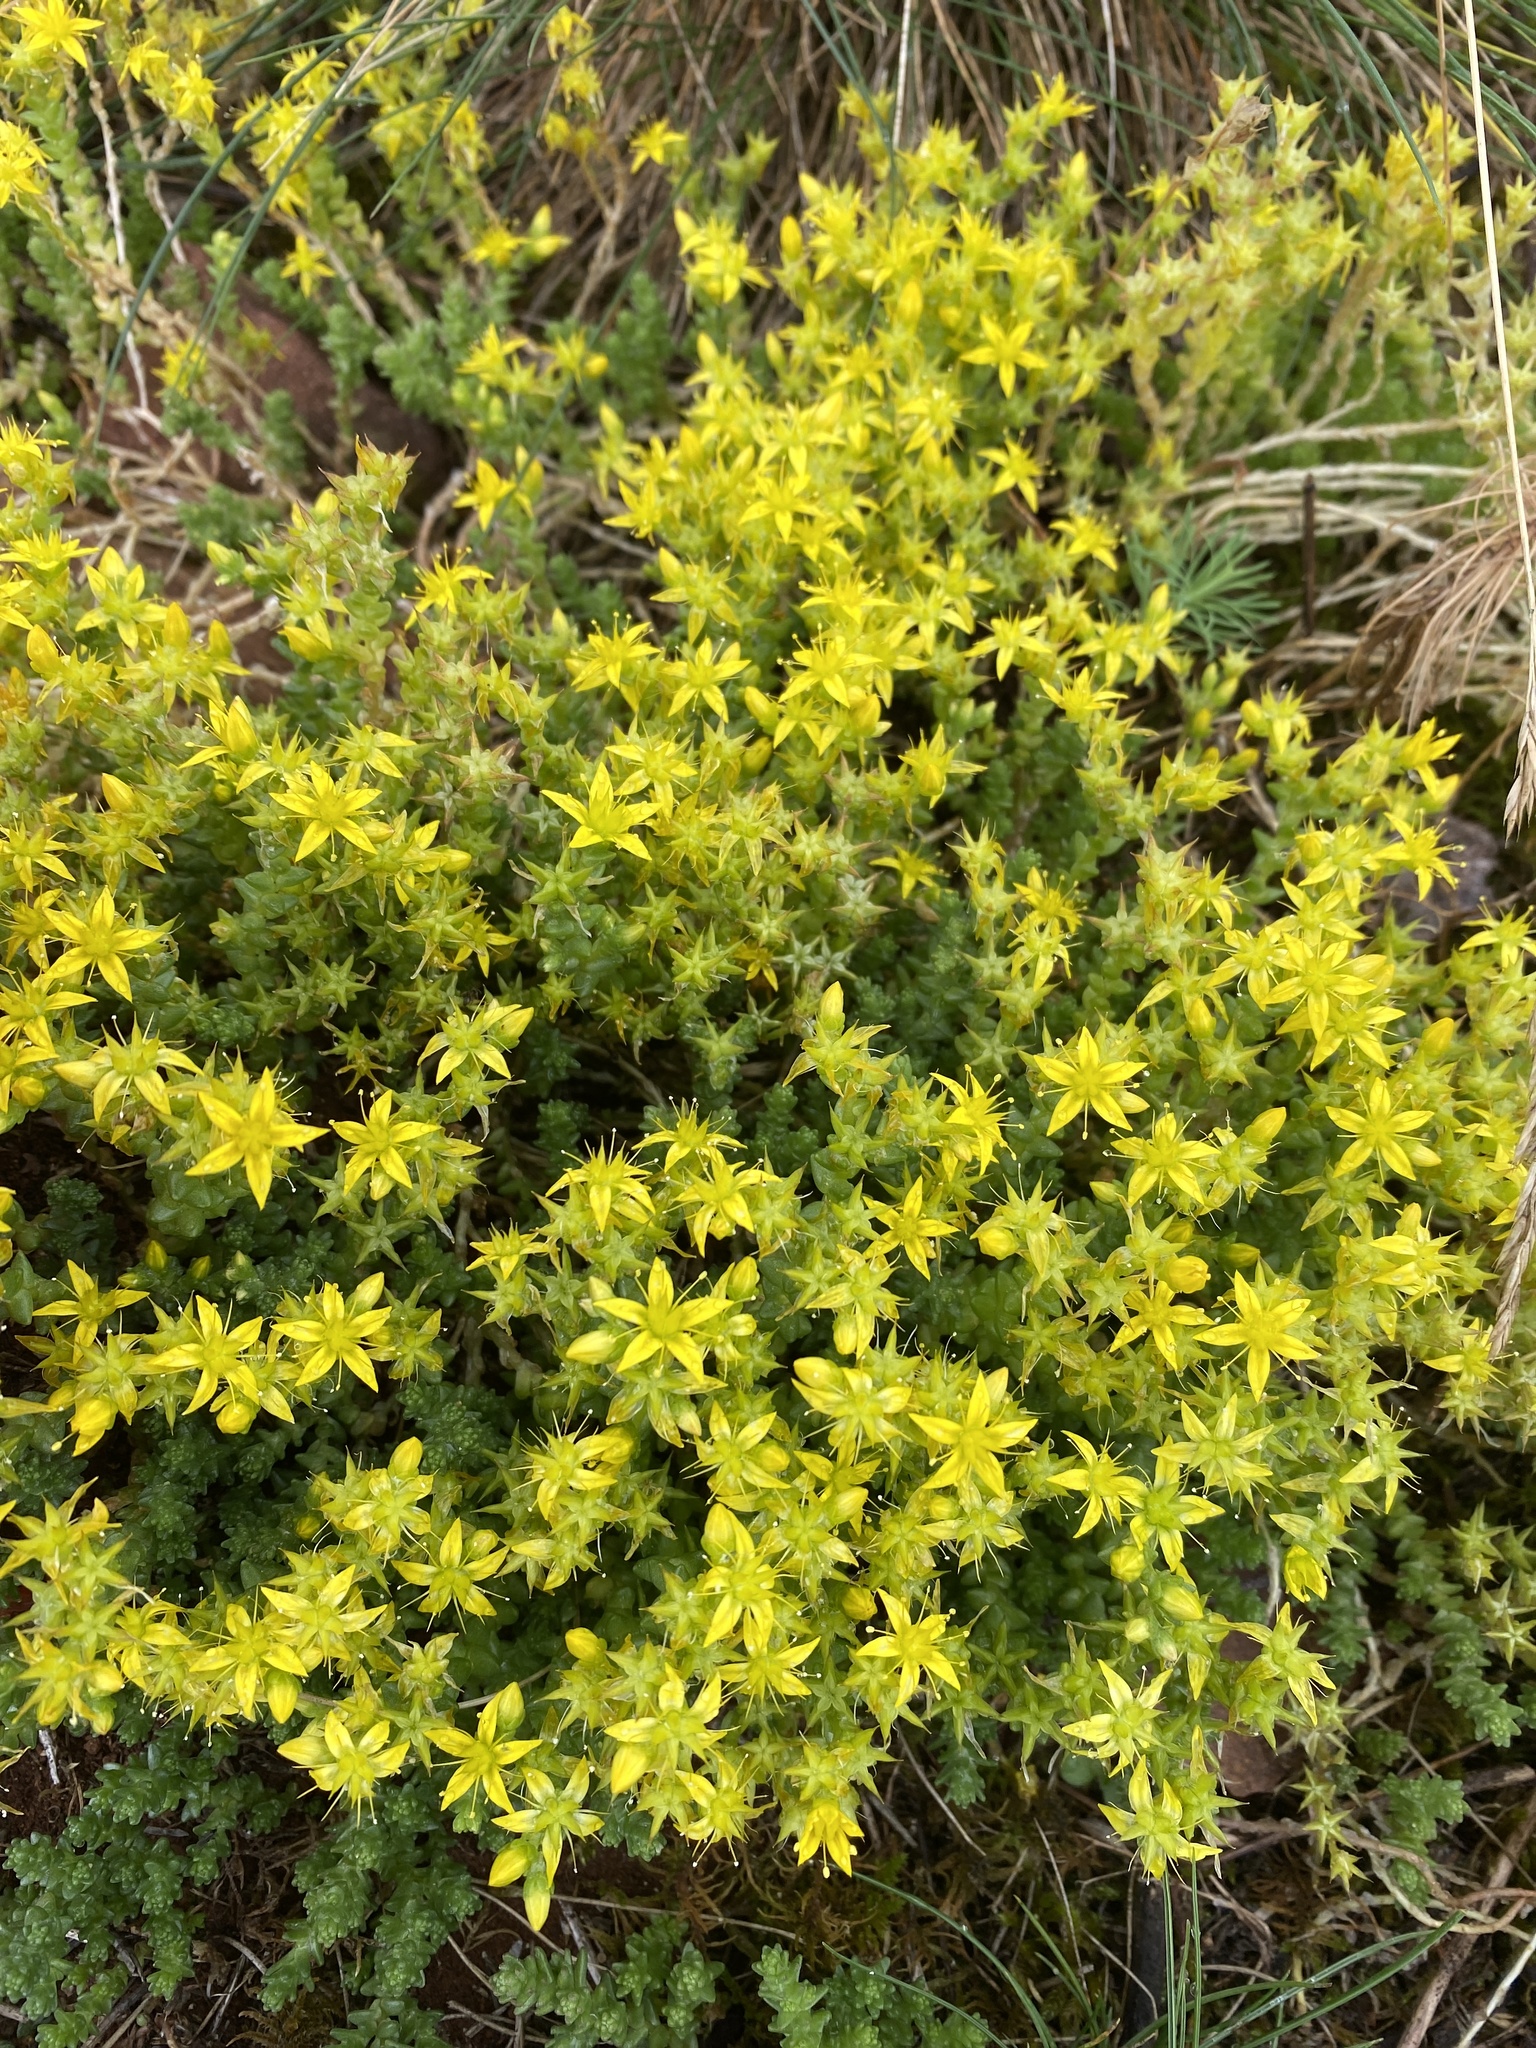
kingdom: Plantae
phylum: Tracheophyta
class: Magnoliopsida
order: Saxifragales
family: Crassulaceae
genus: Sedum
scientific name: Sedum acre
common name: Biting stonecrop
